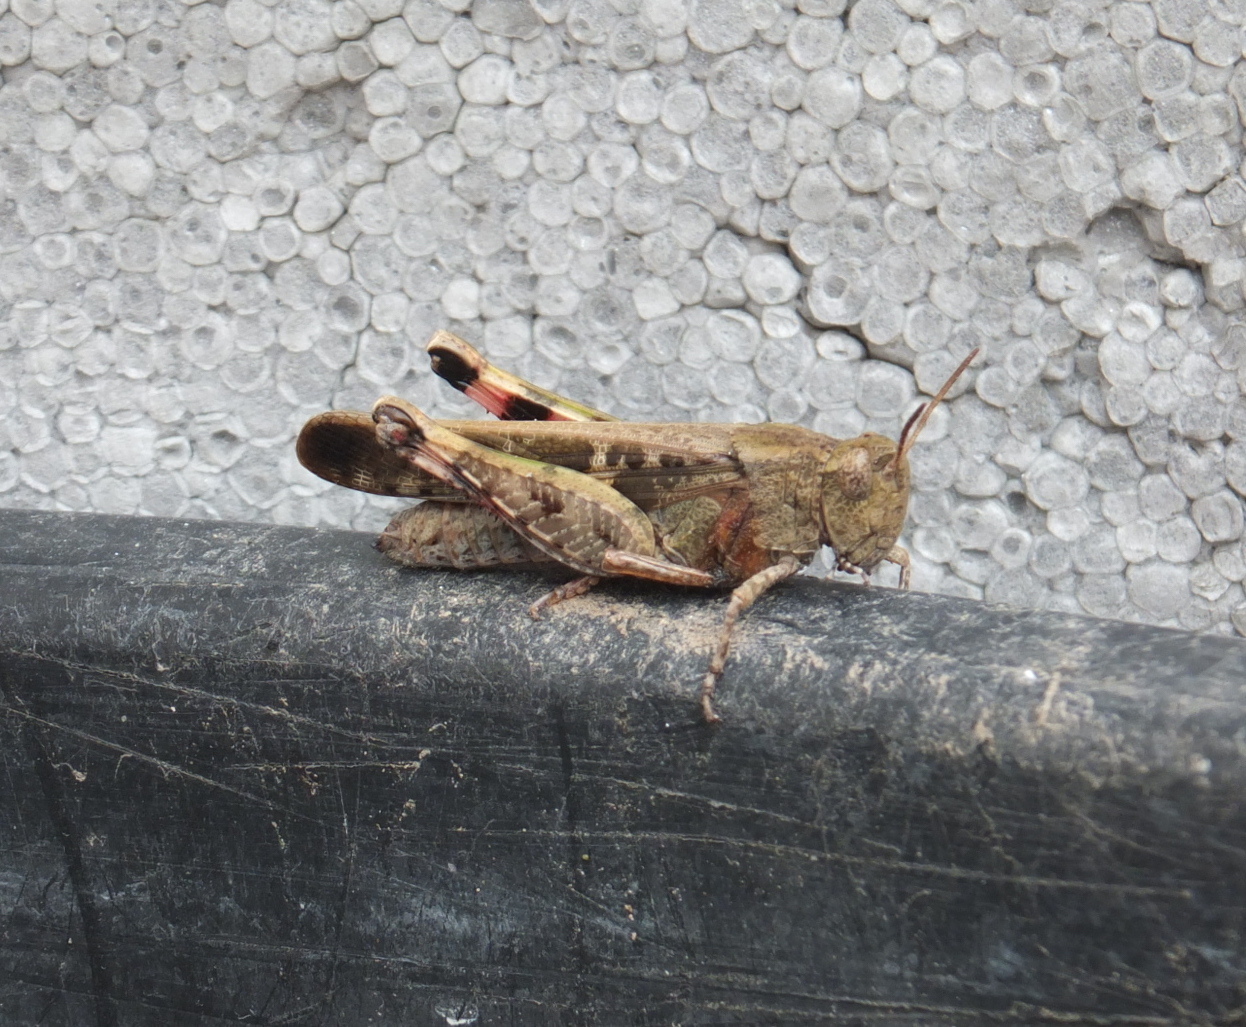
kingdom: Animalia
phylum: Arthropoda
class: Insecta
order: Orthoptera
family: Acrididae
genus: Aiolopus
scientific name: Aiolopus strepens
